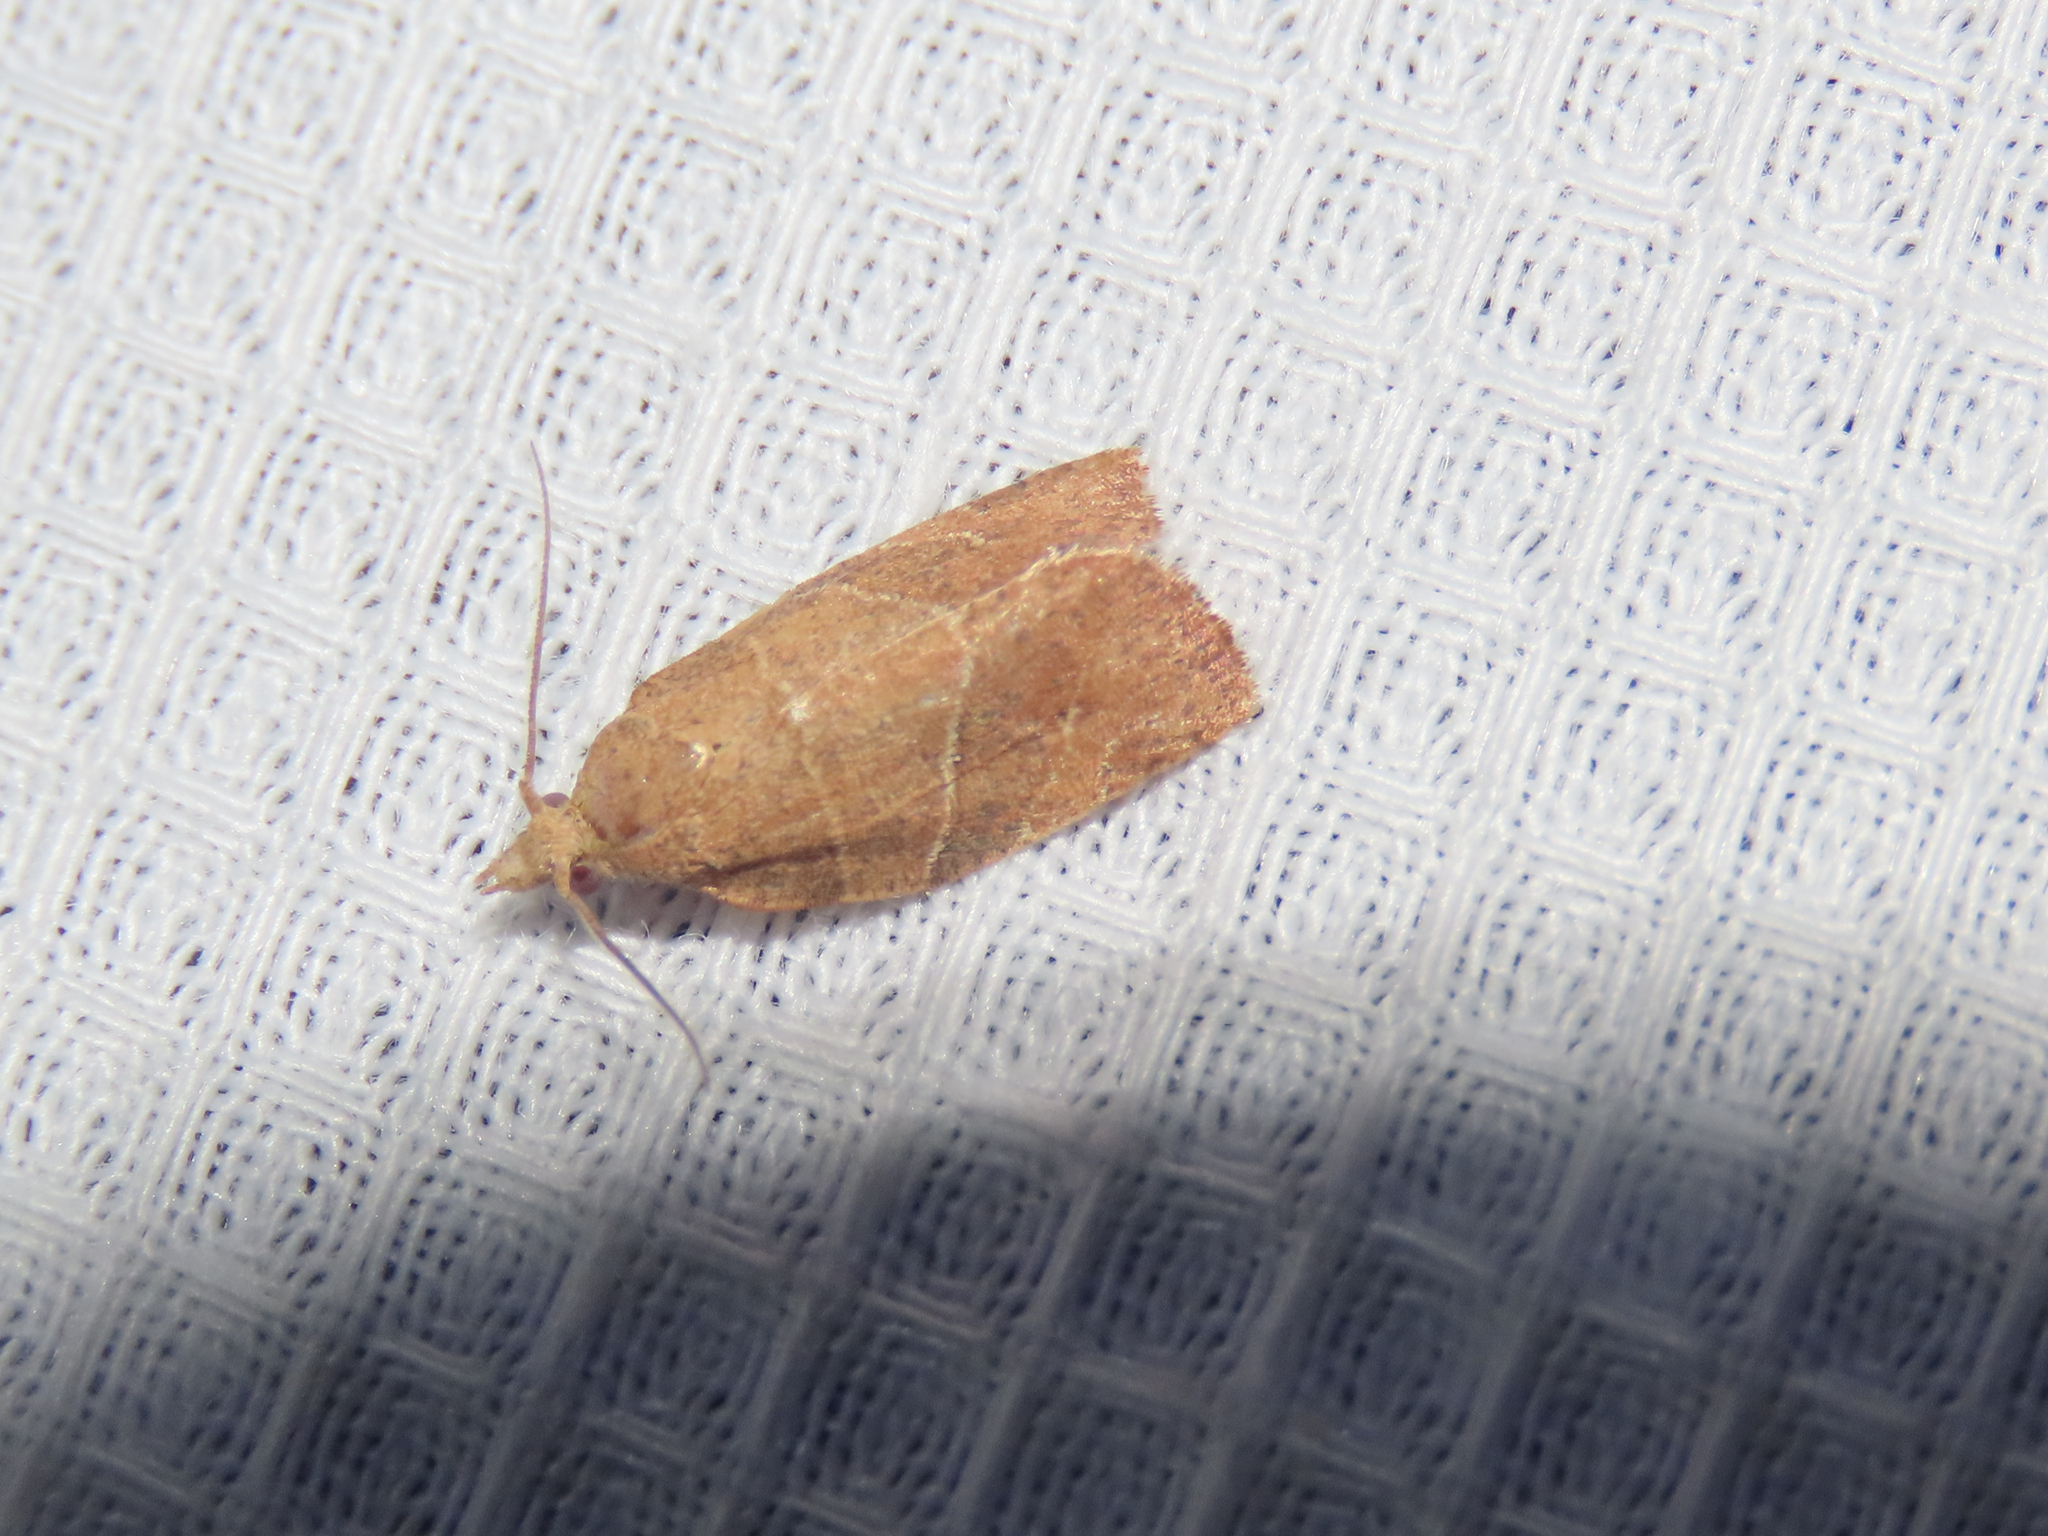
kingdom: Animalia
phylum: Arthropoda
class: Insecta
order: Lepidoptera
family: Tortricidae
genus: Pandemis
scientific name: Pandemis limitata
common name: Three-lined leafroller moth
